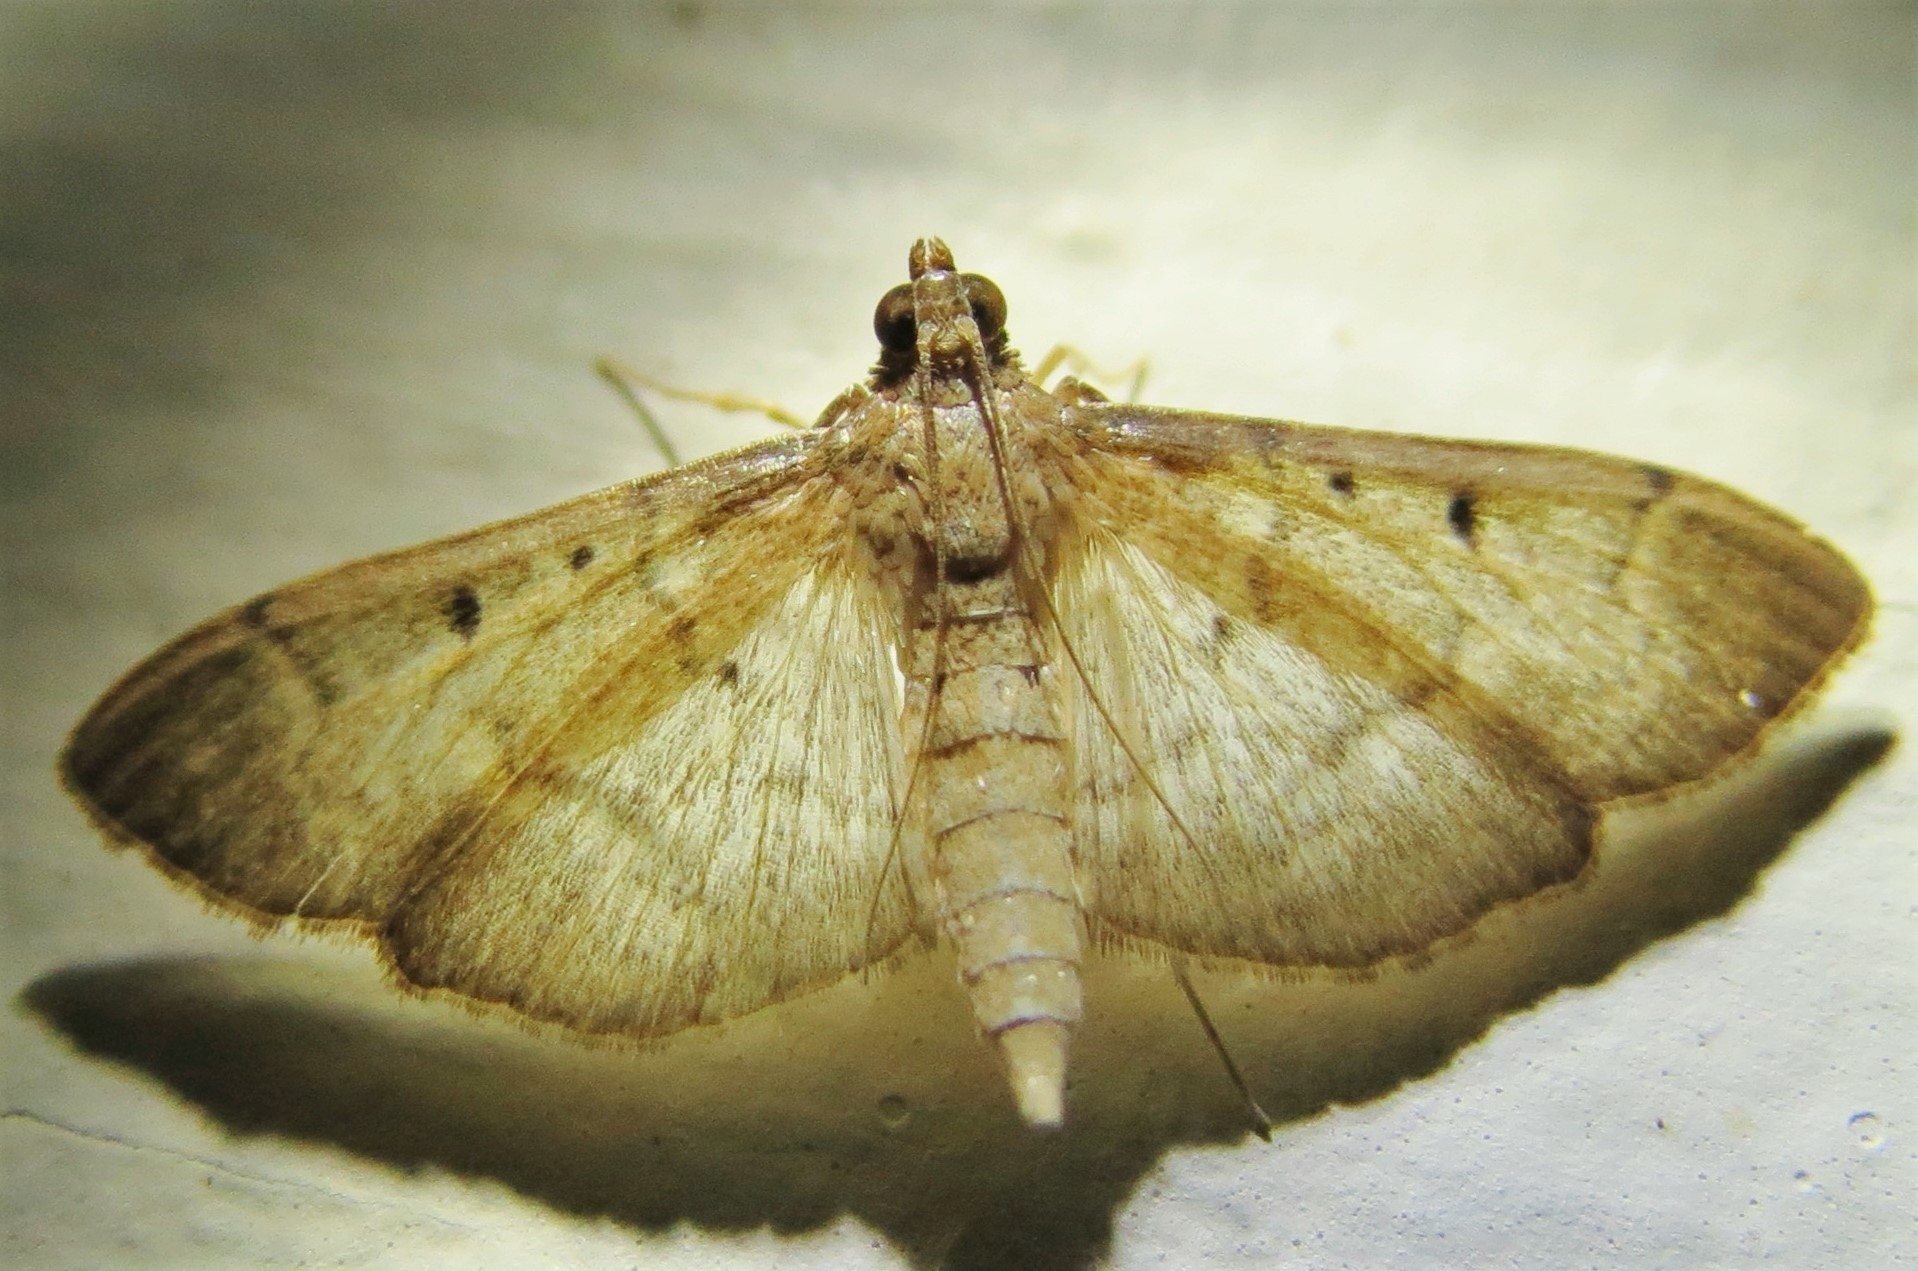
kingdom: Animalia
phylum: Arthropoda
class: Insecta
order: Lepidoptera
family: Crambidae
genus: Herpetogramma
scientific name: Herpetogramma bipunctalis
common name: Southern beet webworm
